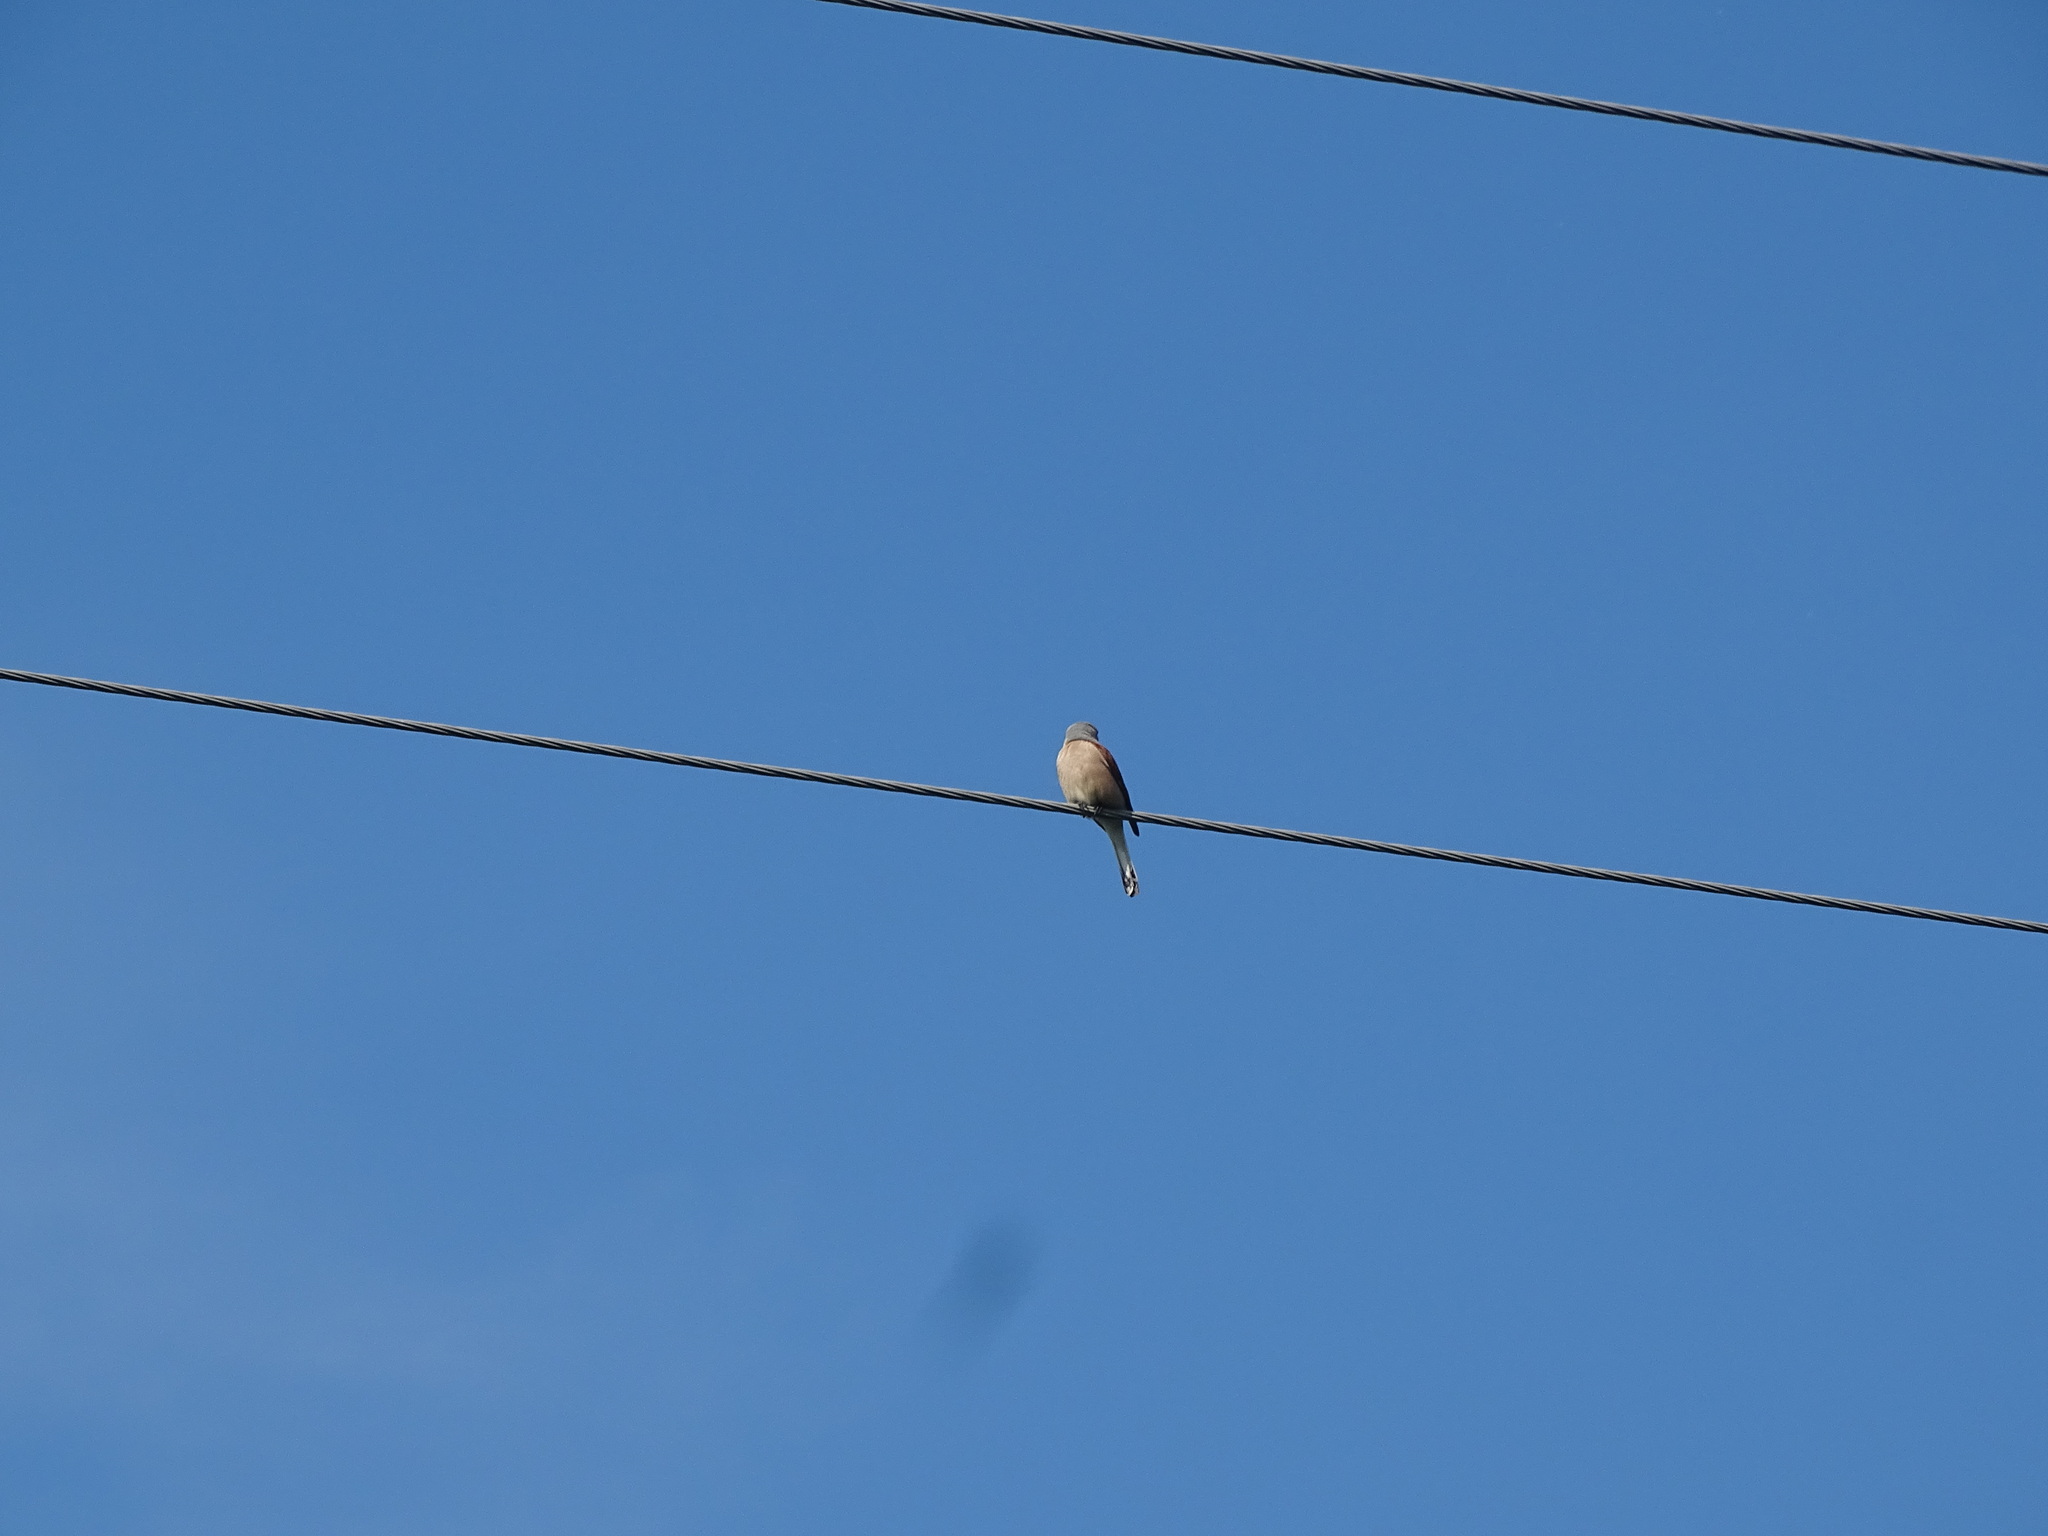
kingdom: Animalia
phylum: Chordata
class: Aves
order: Passeriformes
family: Laniidae
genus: Lanius
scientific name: Lanius collurio
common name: Red-backed shrike
